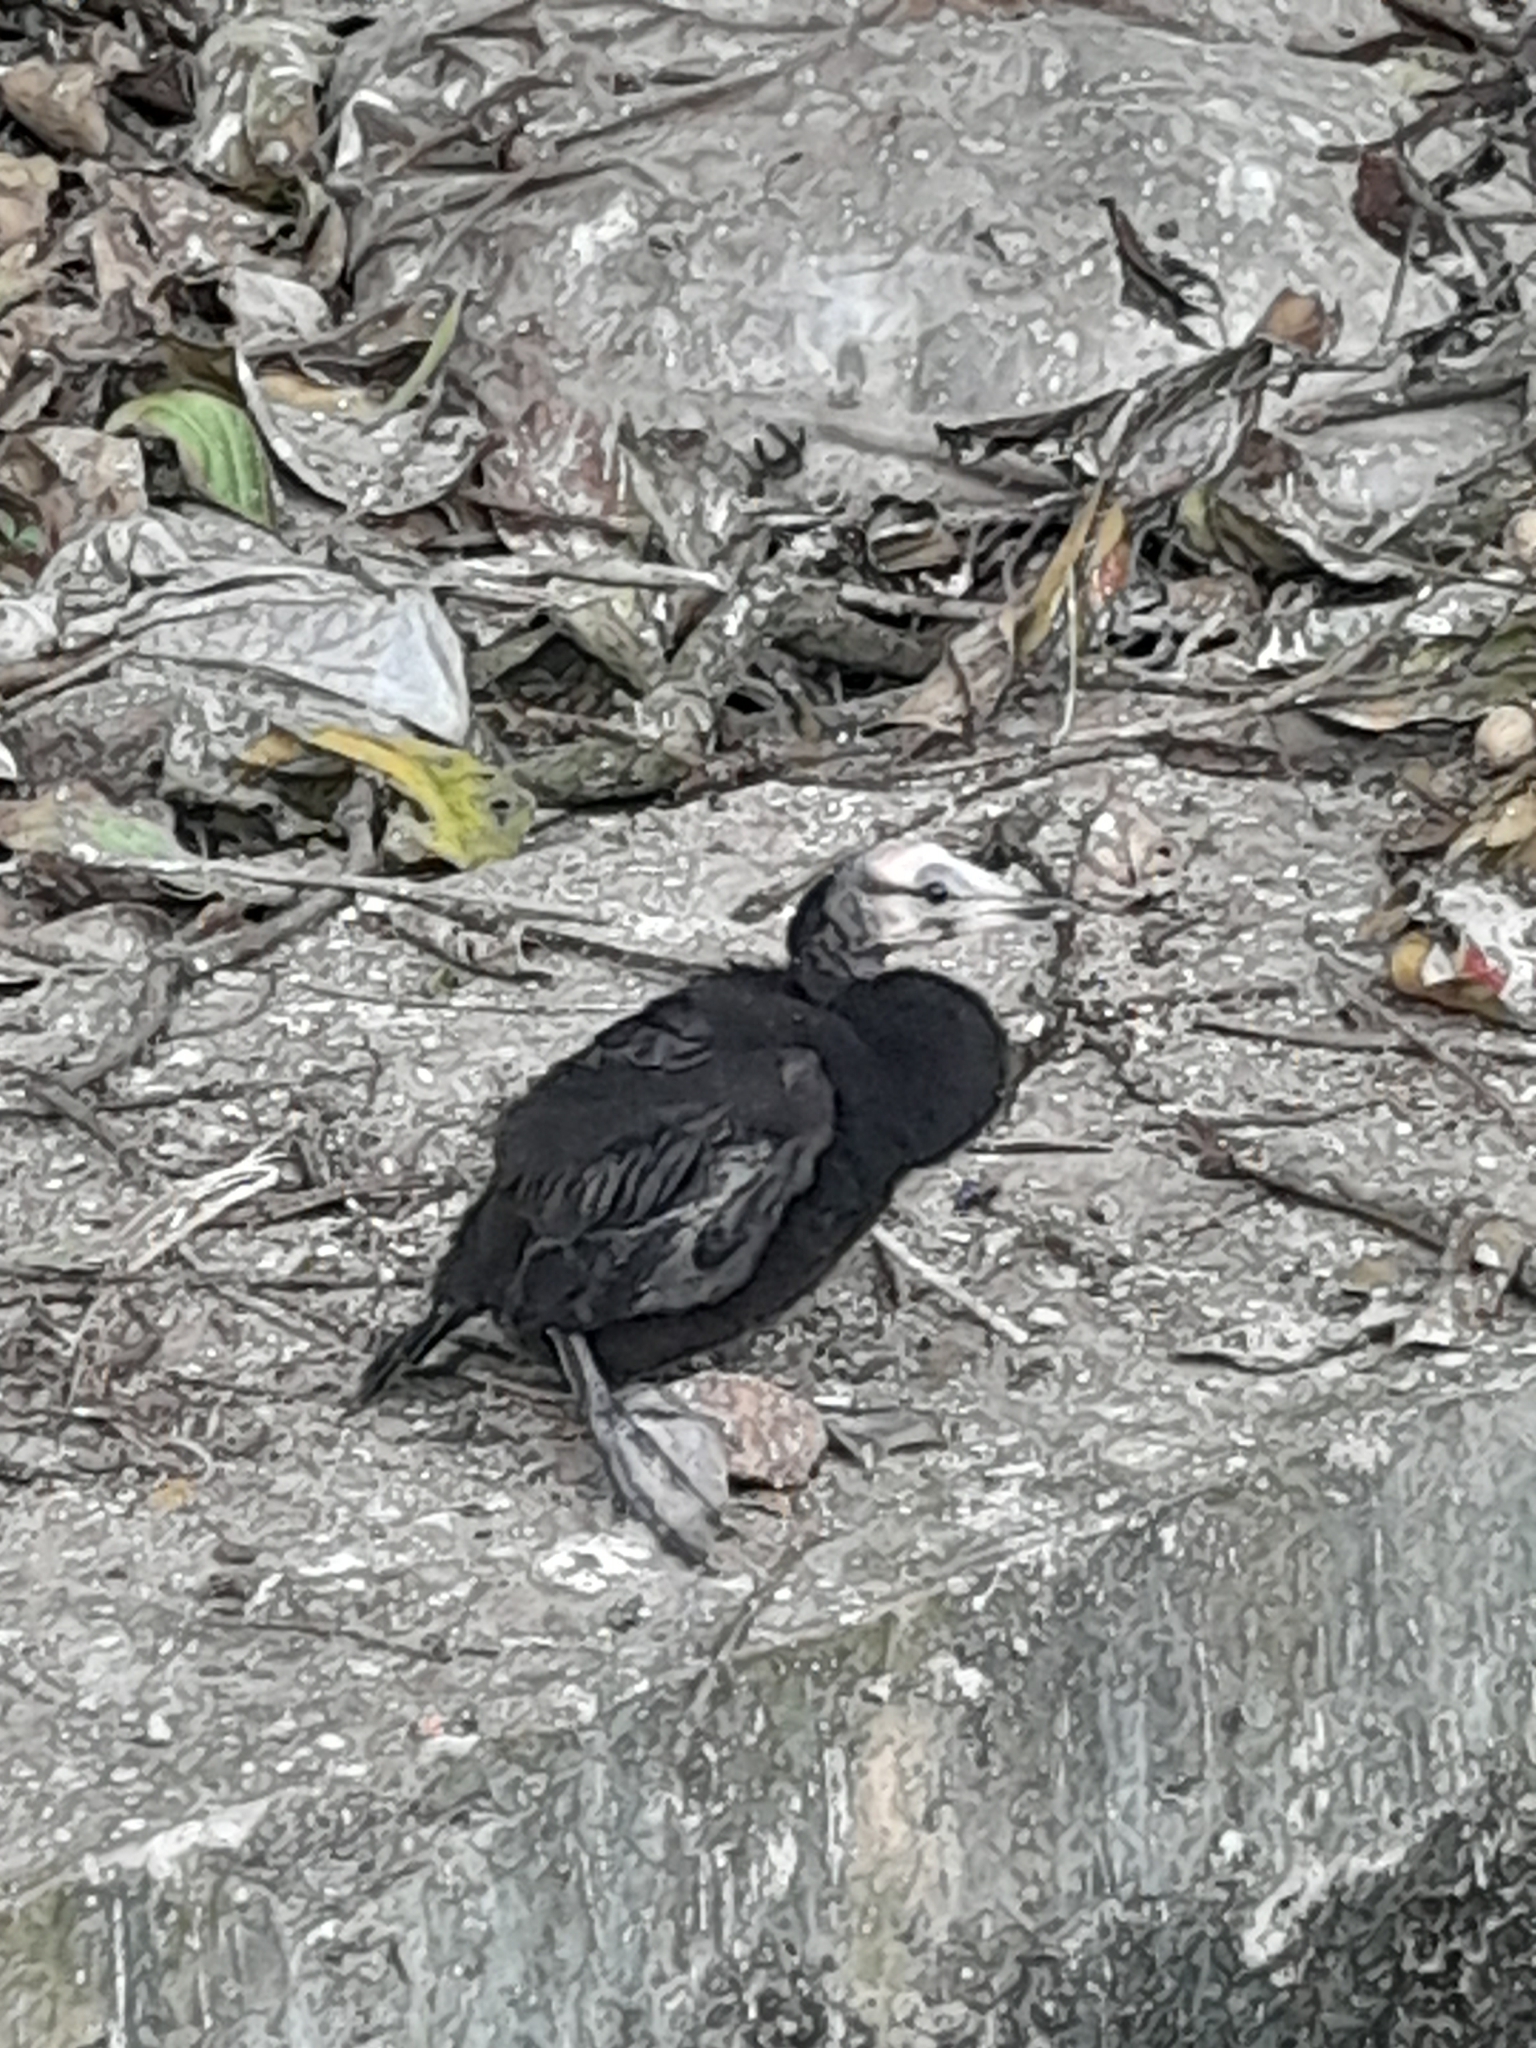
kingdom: Animalia
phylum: Chordata
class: Aves
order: Suliformes
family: Phalacrocoracidae
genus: Microcarbo
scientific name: Microcarbo niger
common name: Little cormorant
